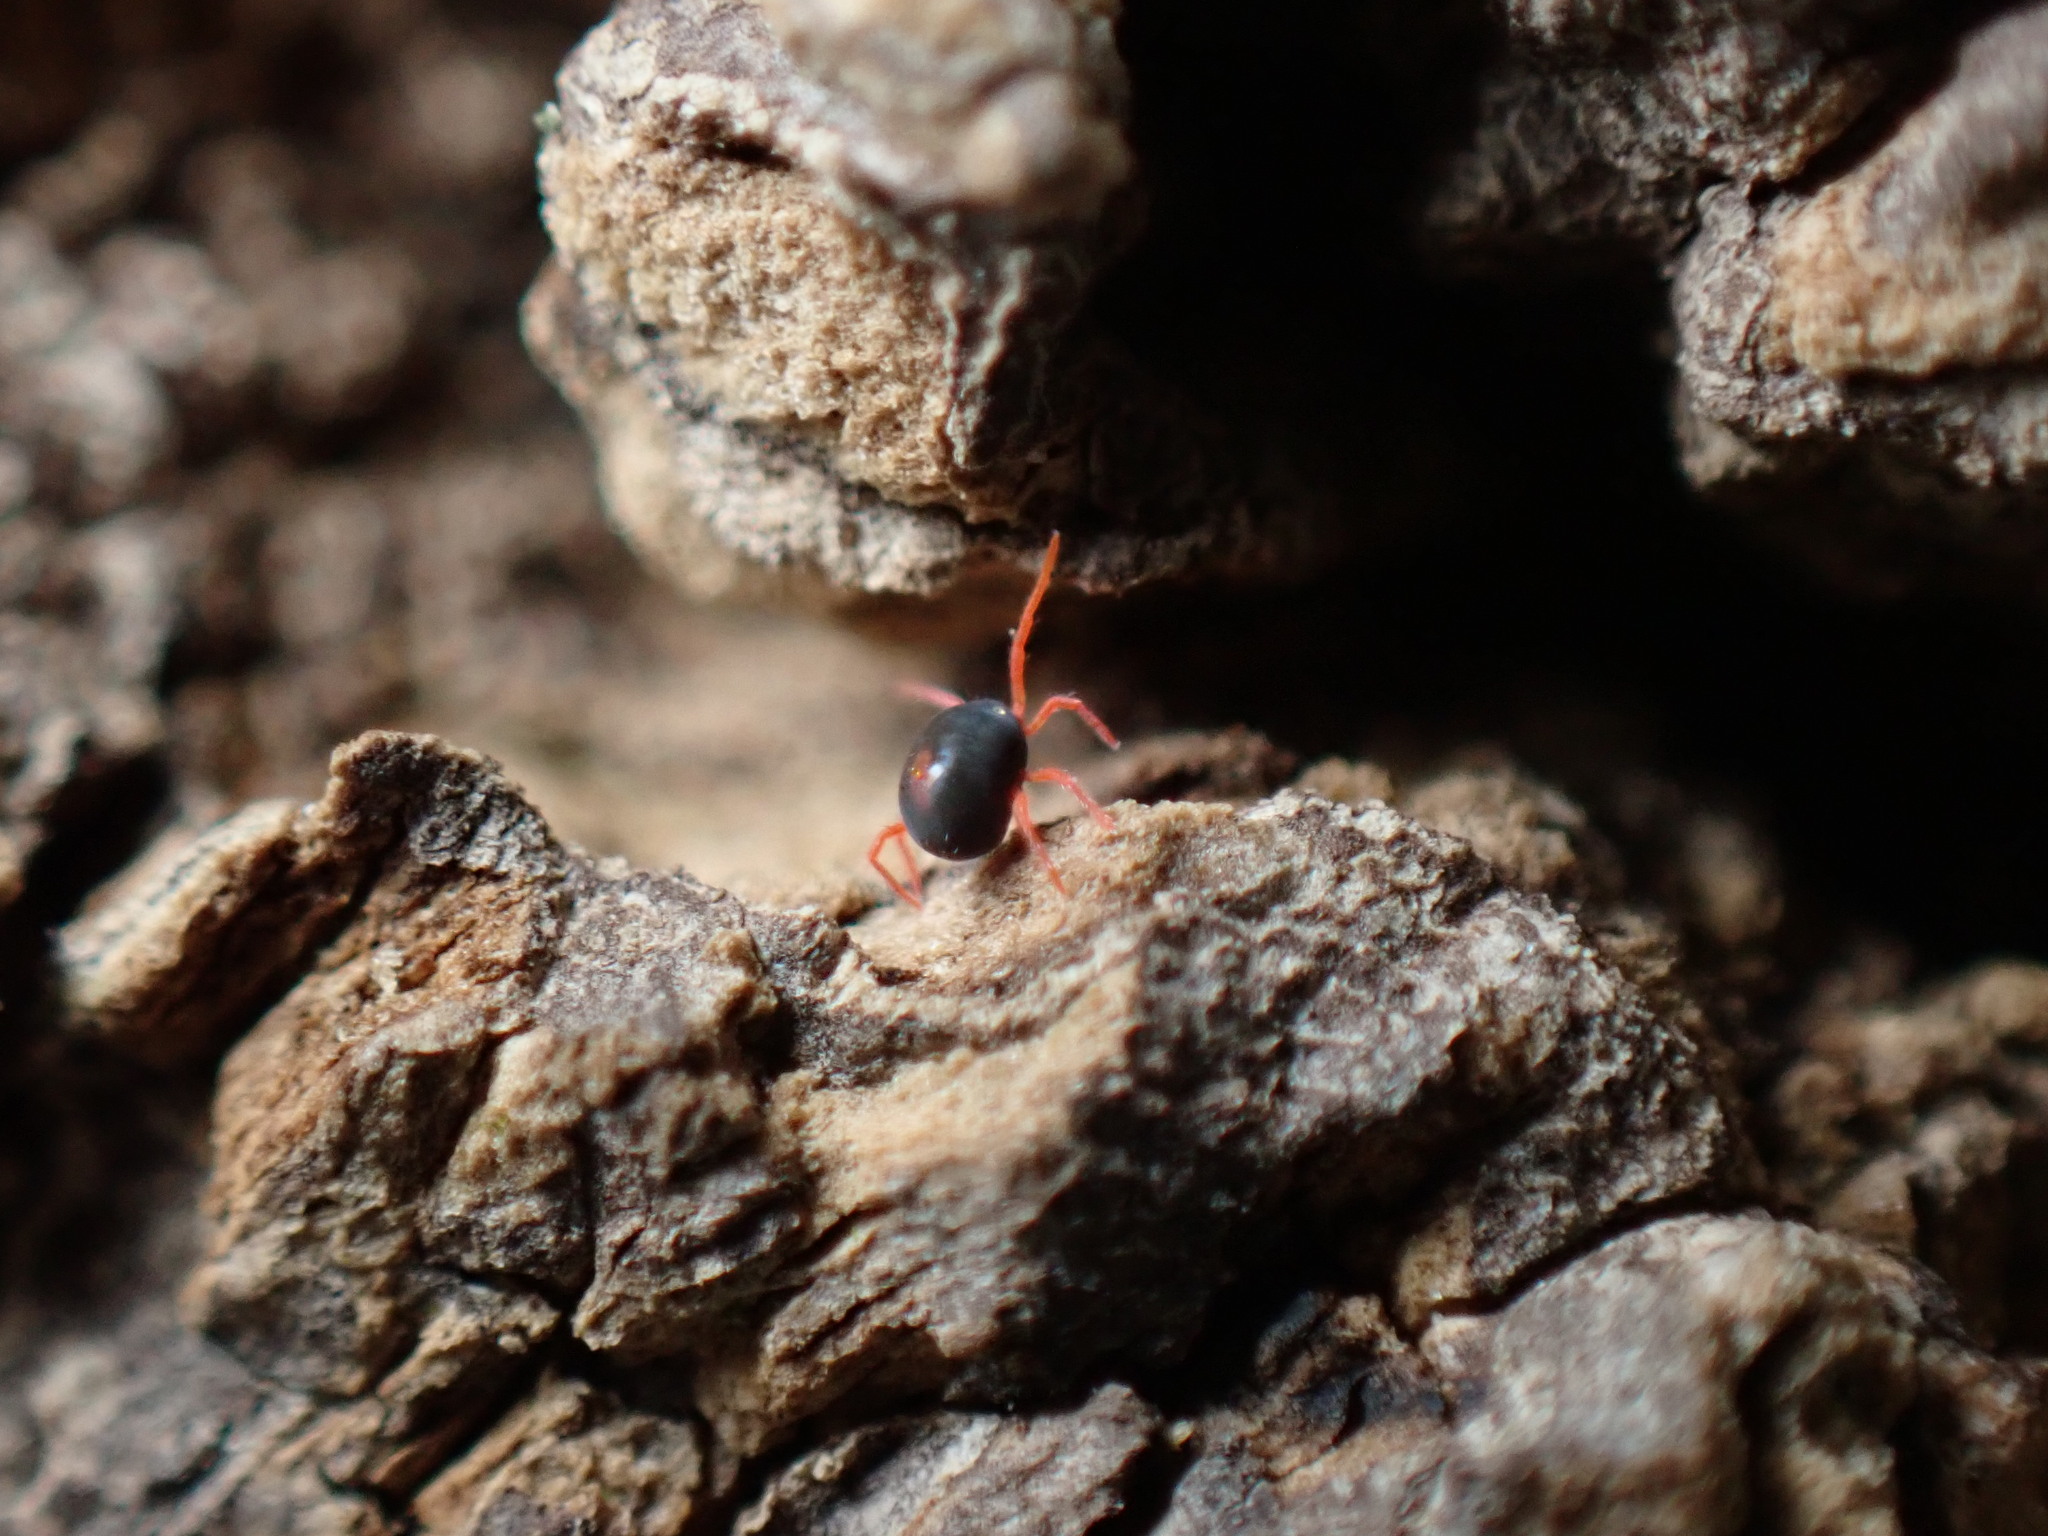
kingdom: Animalia
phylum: Arthropoda
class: Arachnida
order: Trombidiformes
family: Penthaleidae
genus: Penthaleus
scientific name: Penthaleus major
